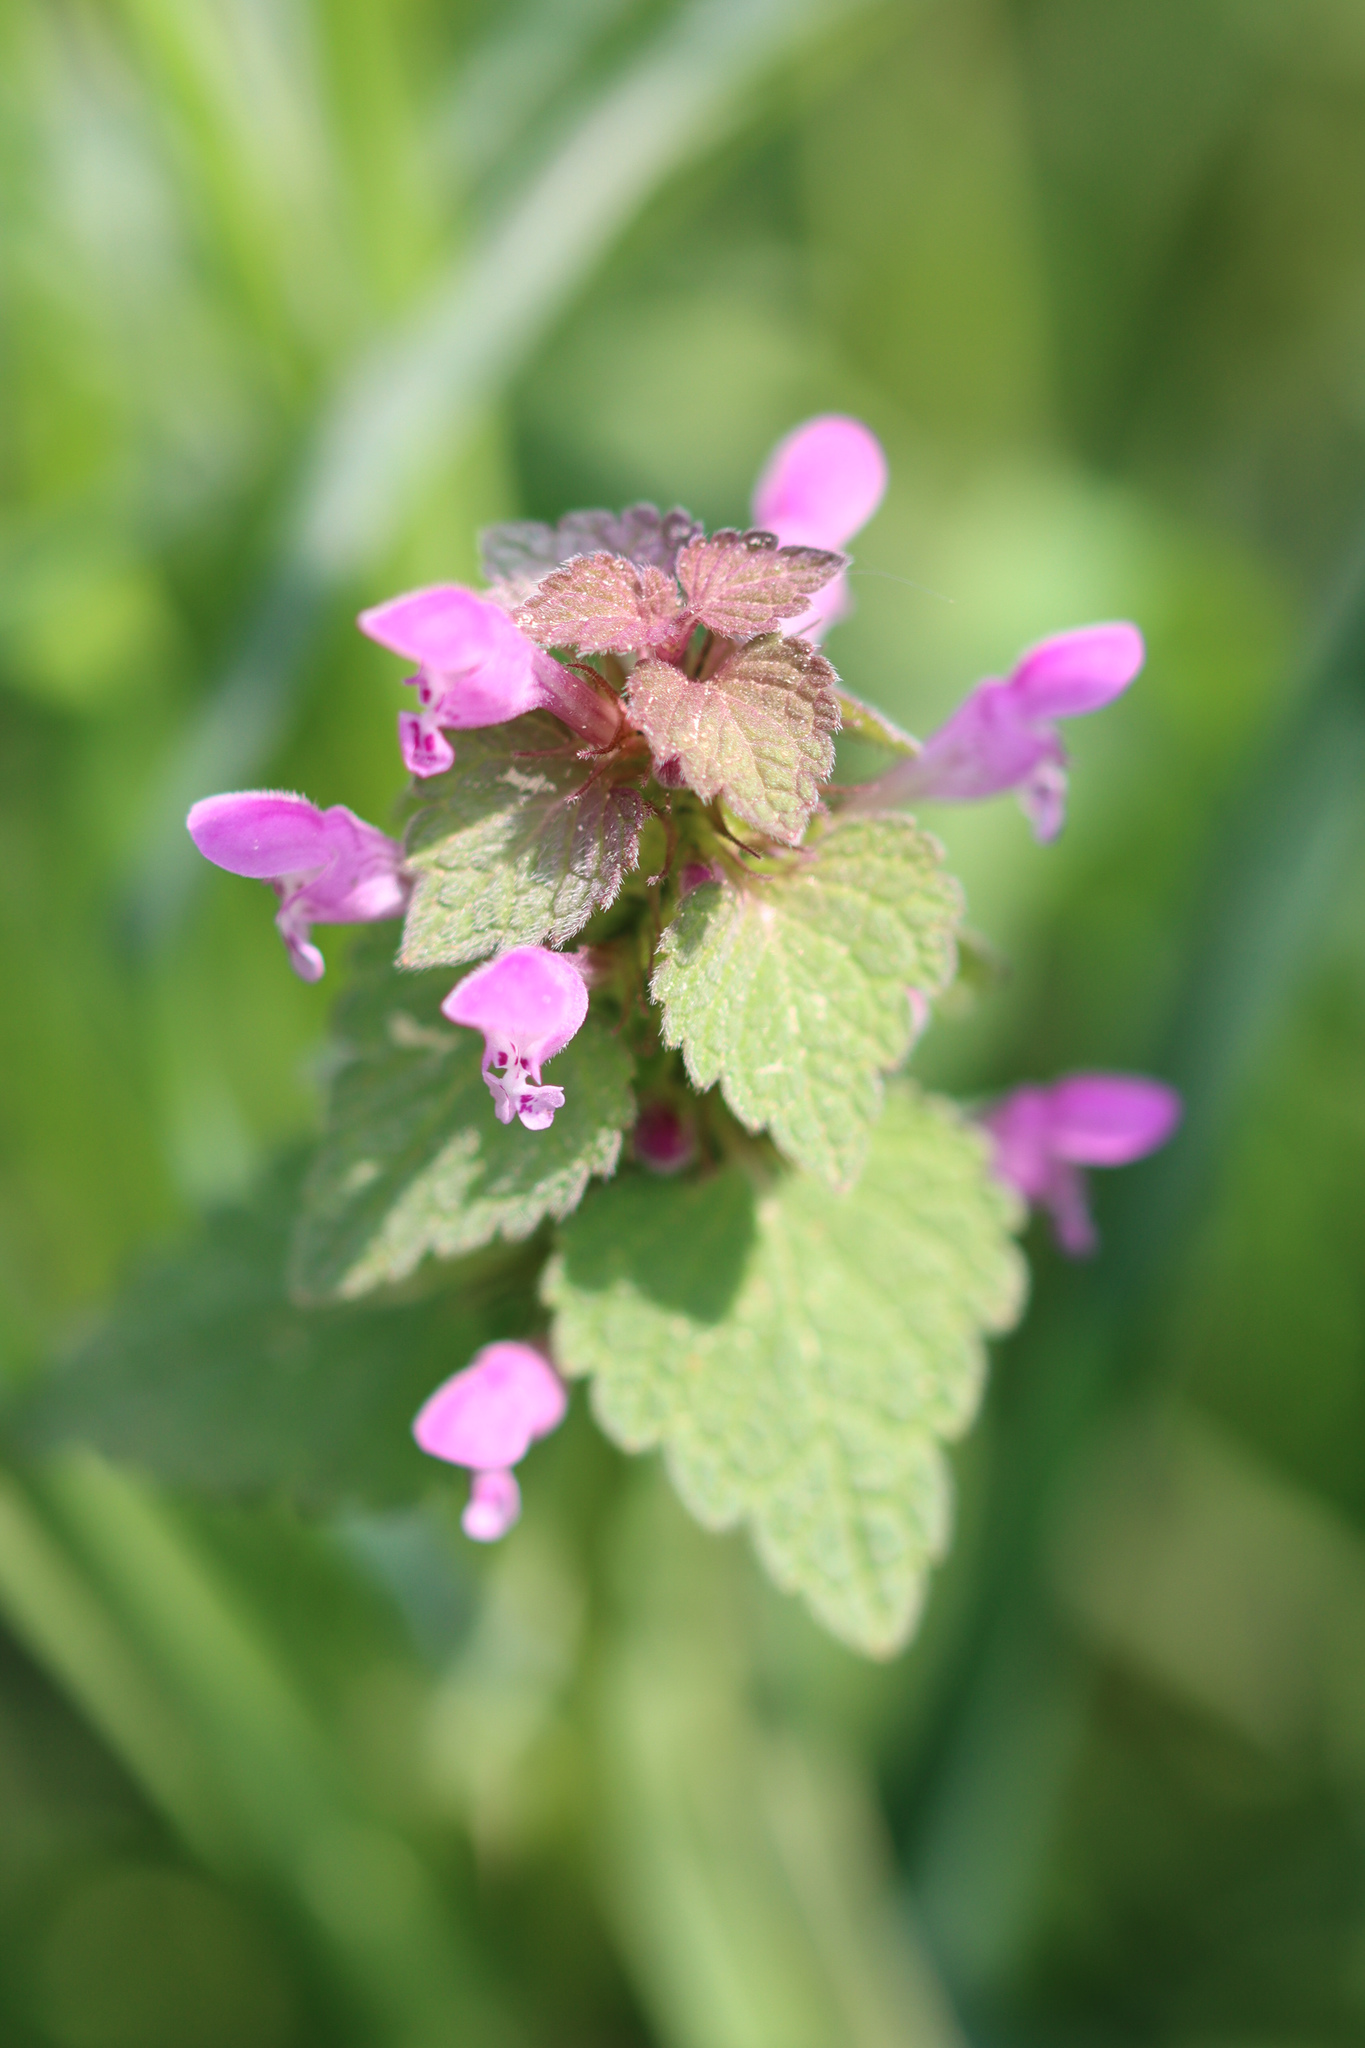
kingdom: Plantae
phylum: Tracheophyta
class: Magnoliopsida
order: Lamiales
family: Lamiaceae
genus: Lamium
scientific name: Lamium purpureum
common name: Red dead-nettle
